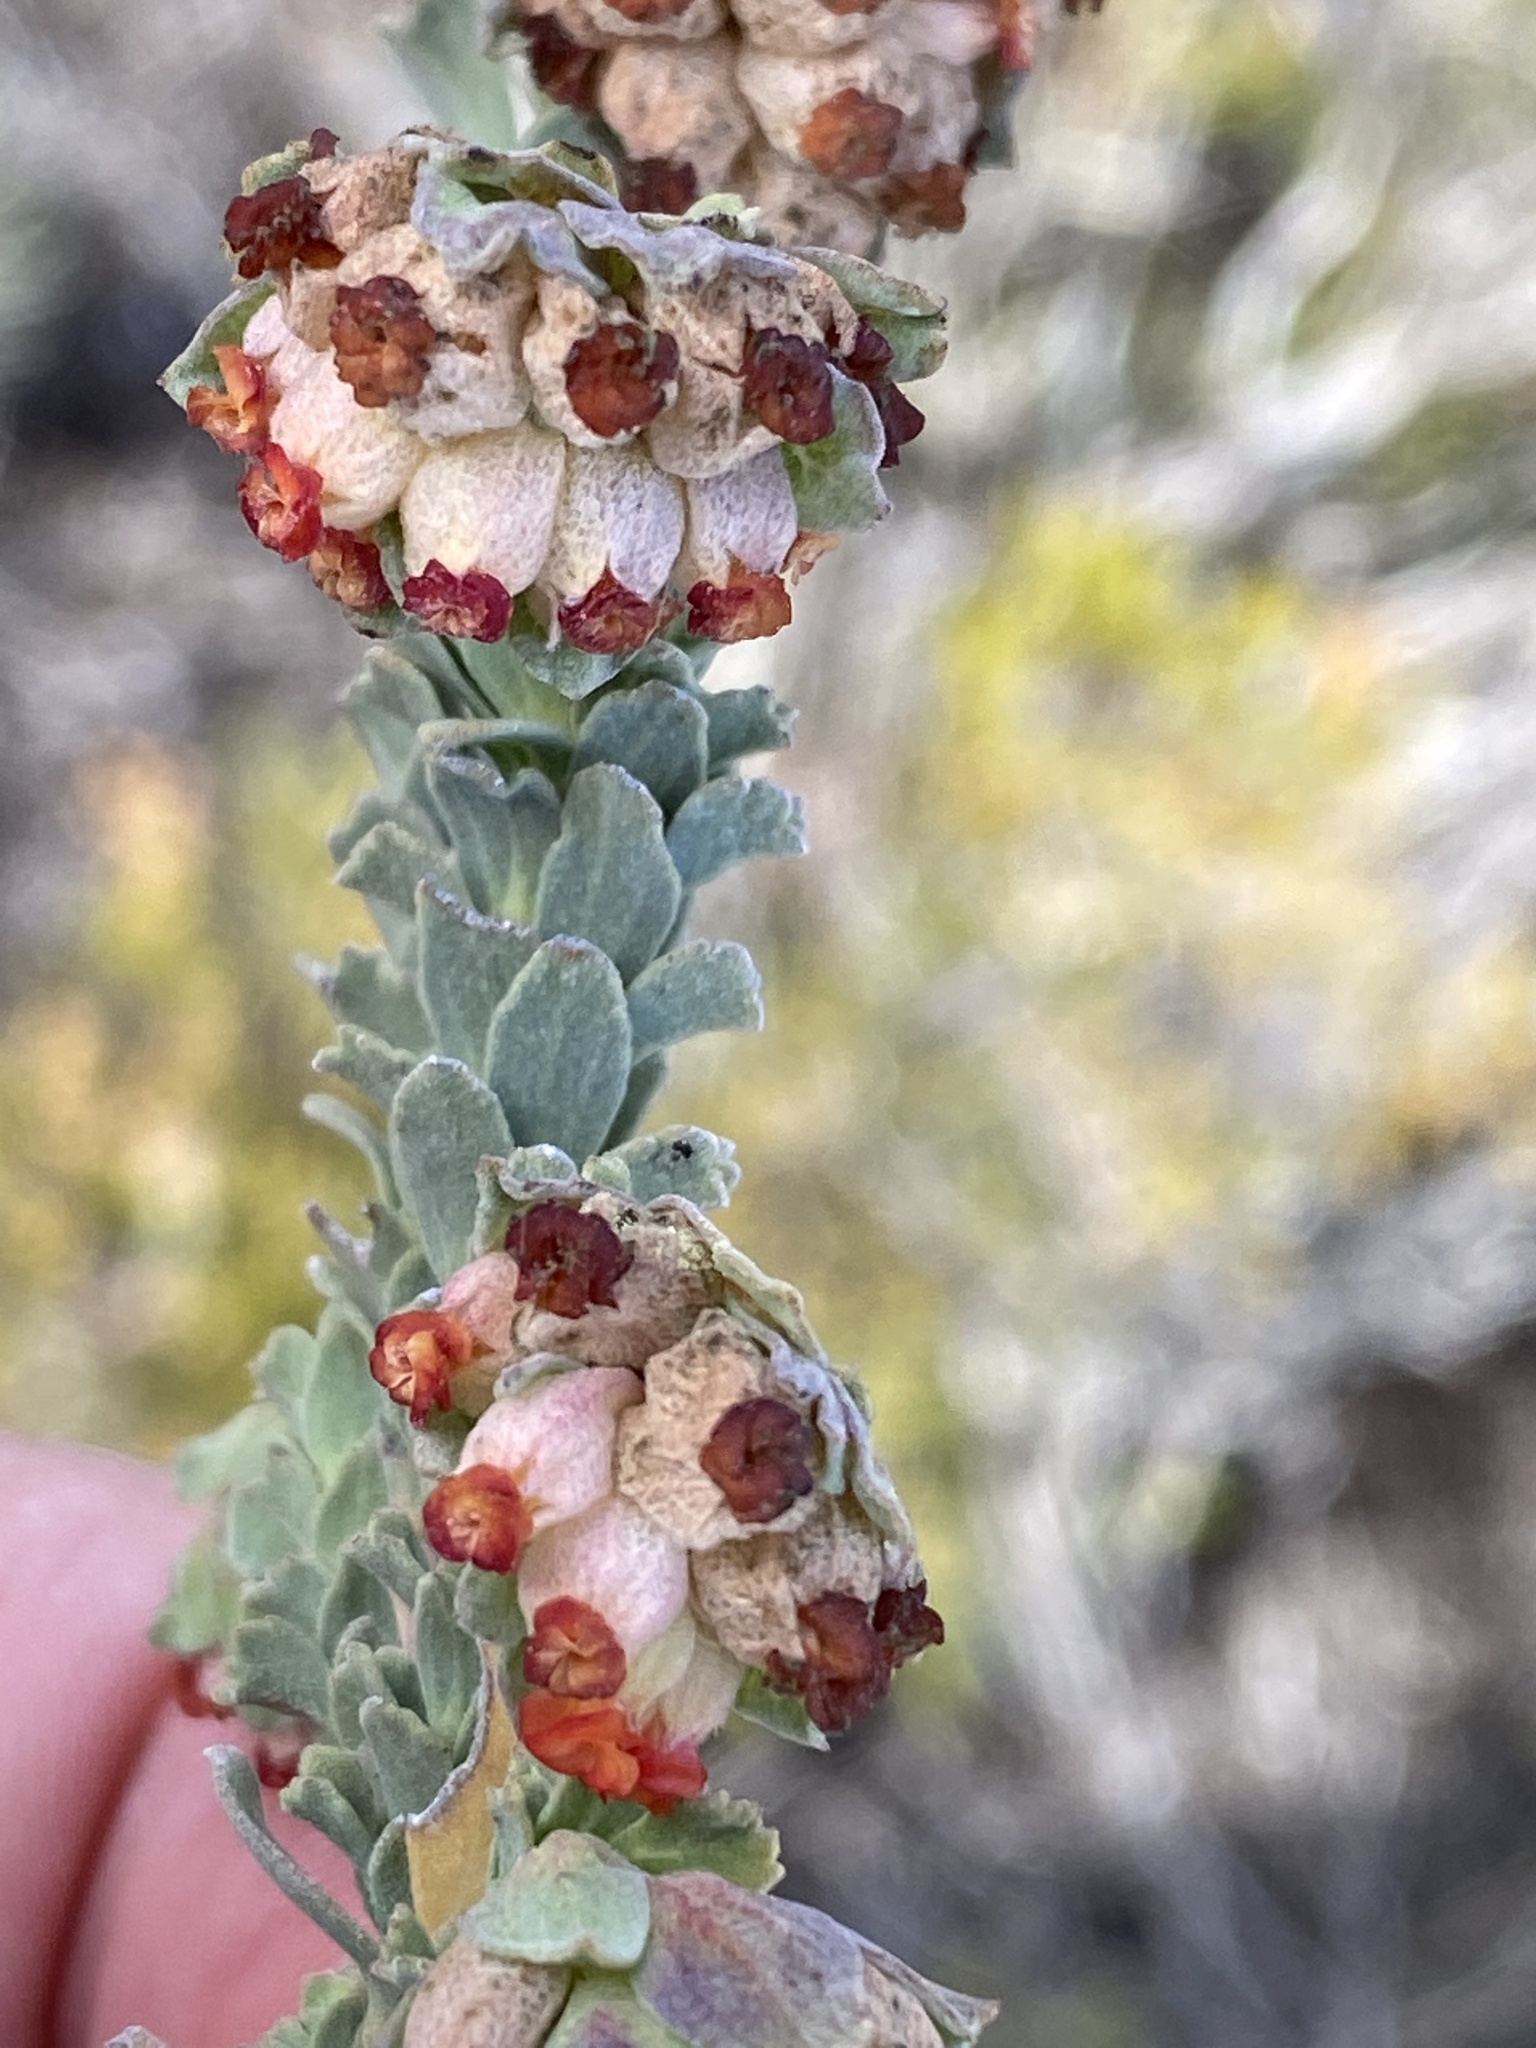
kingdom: Plantae
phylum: Tracheophyta
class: Magnoliopsida
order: Malvales
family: Malvaceae
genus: Hermannia
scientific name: Hermannia trifoliata
